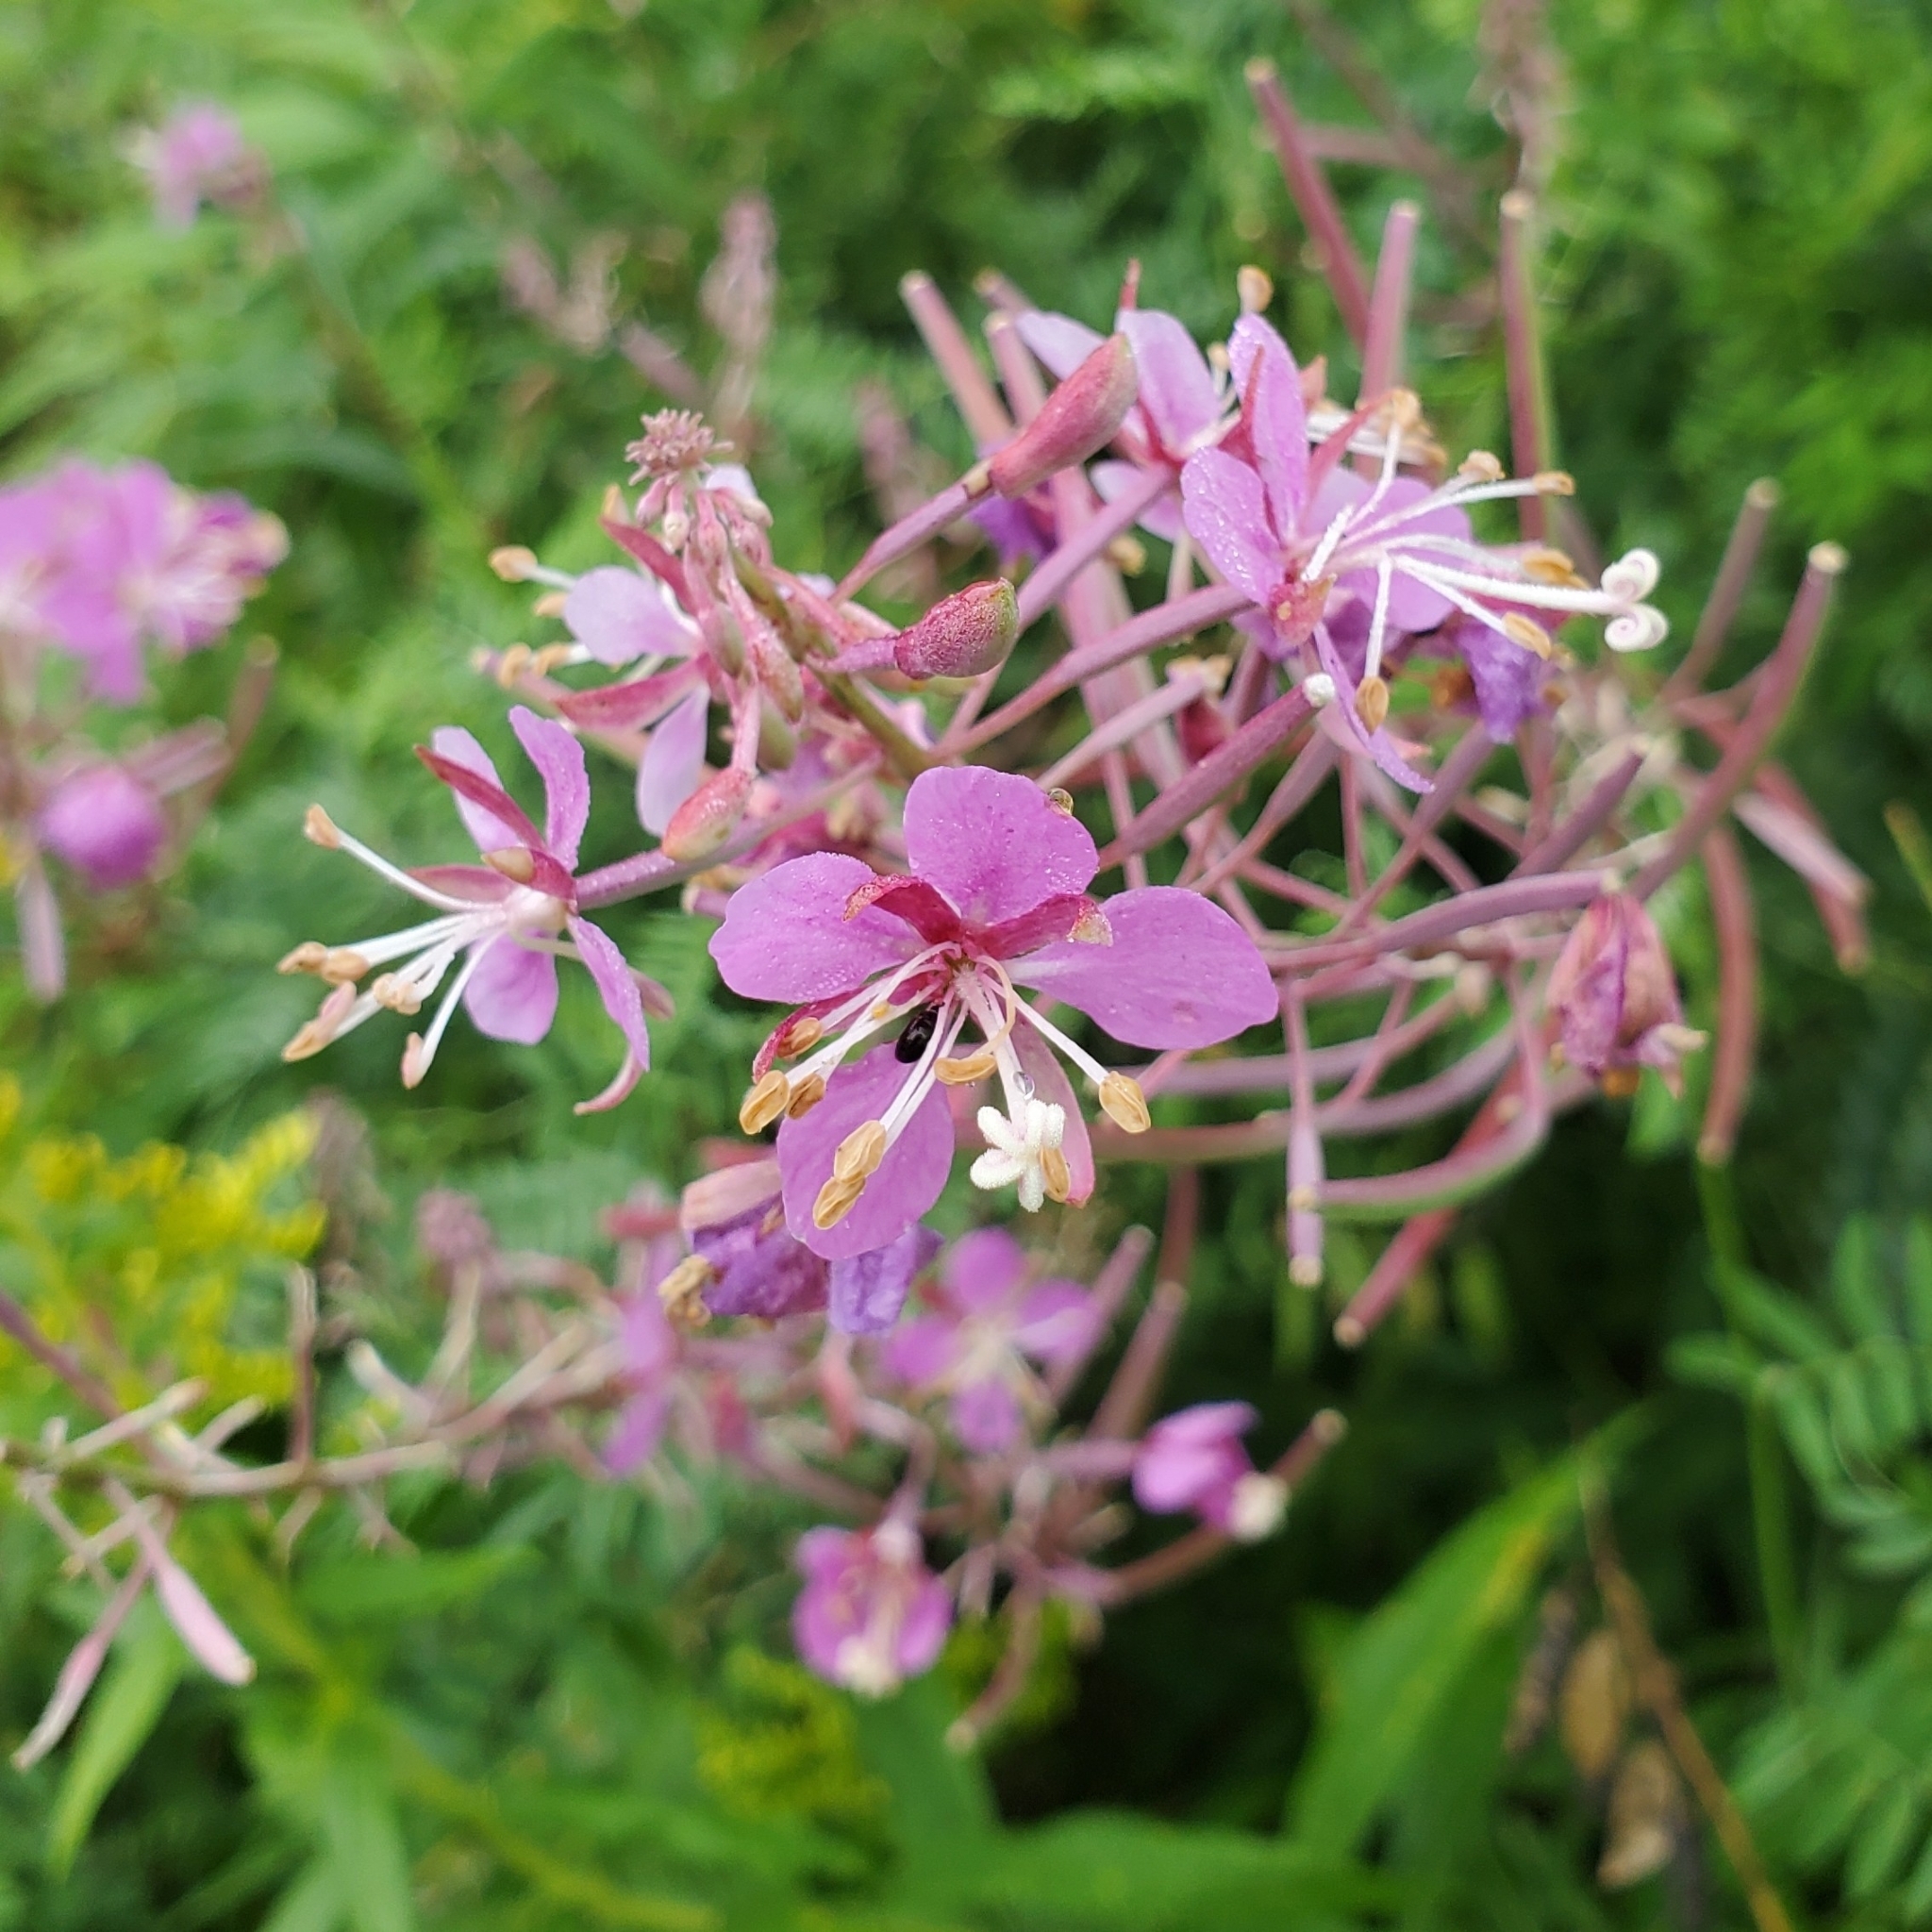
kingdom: Plantae
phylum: Tracheophyta
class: Magnoliopsida
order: Myrtales
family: Onagraceae
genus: Chamaenerion
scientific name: Chamaenerion angustifolium
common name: Fireweed
